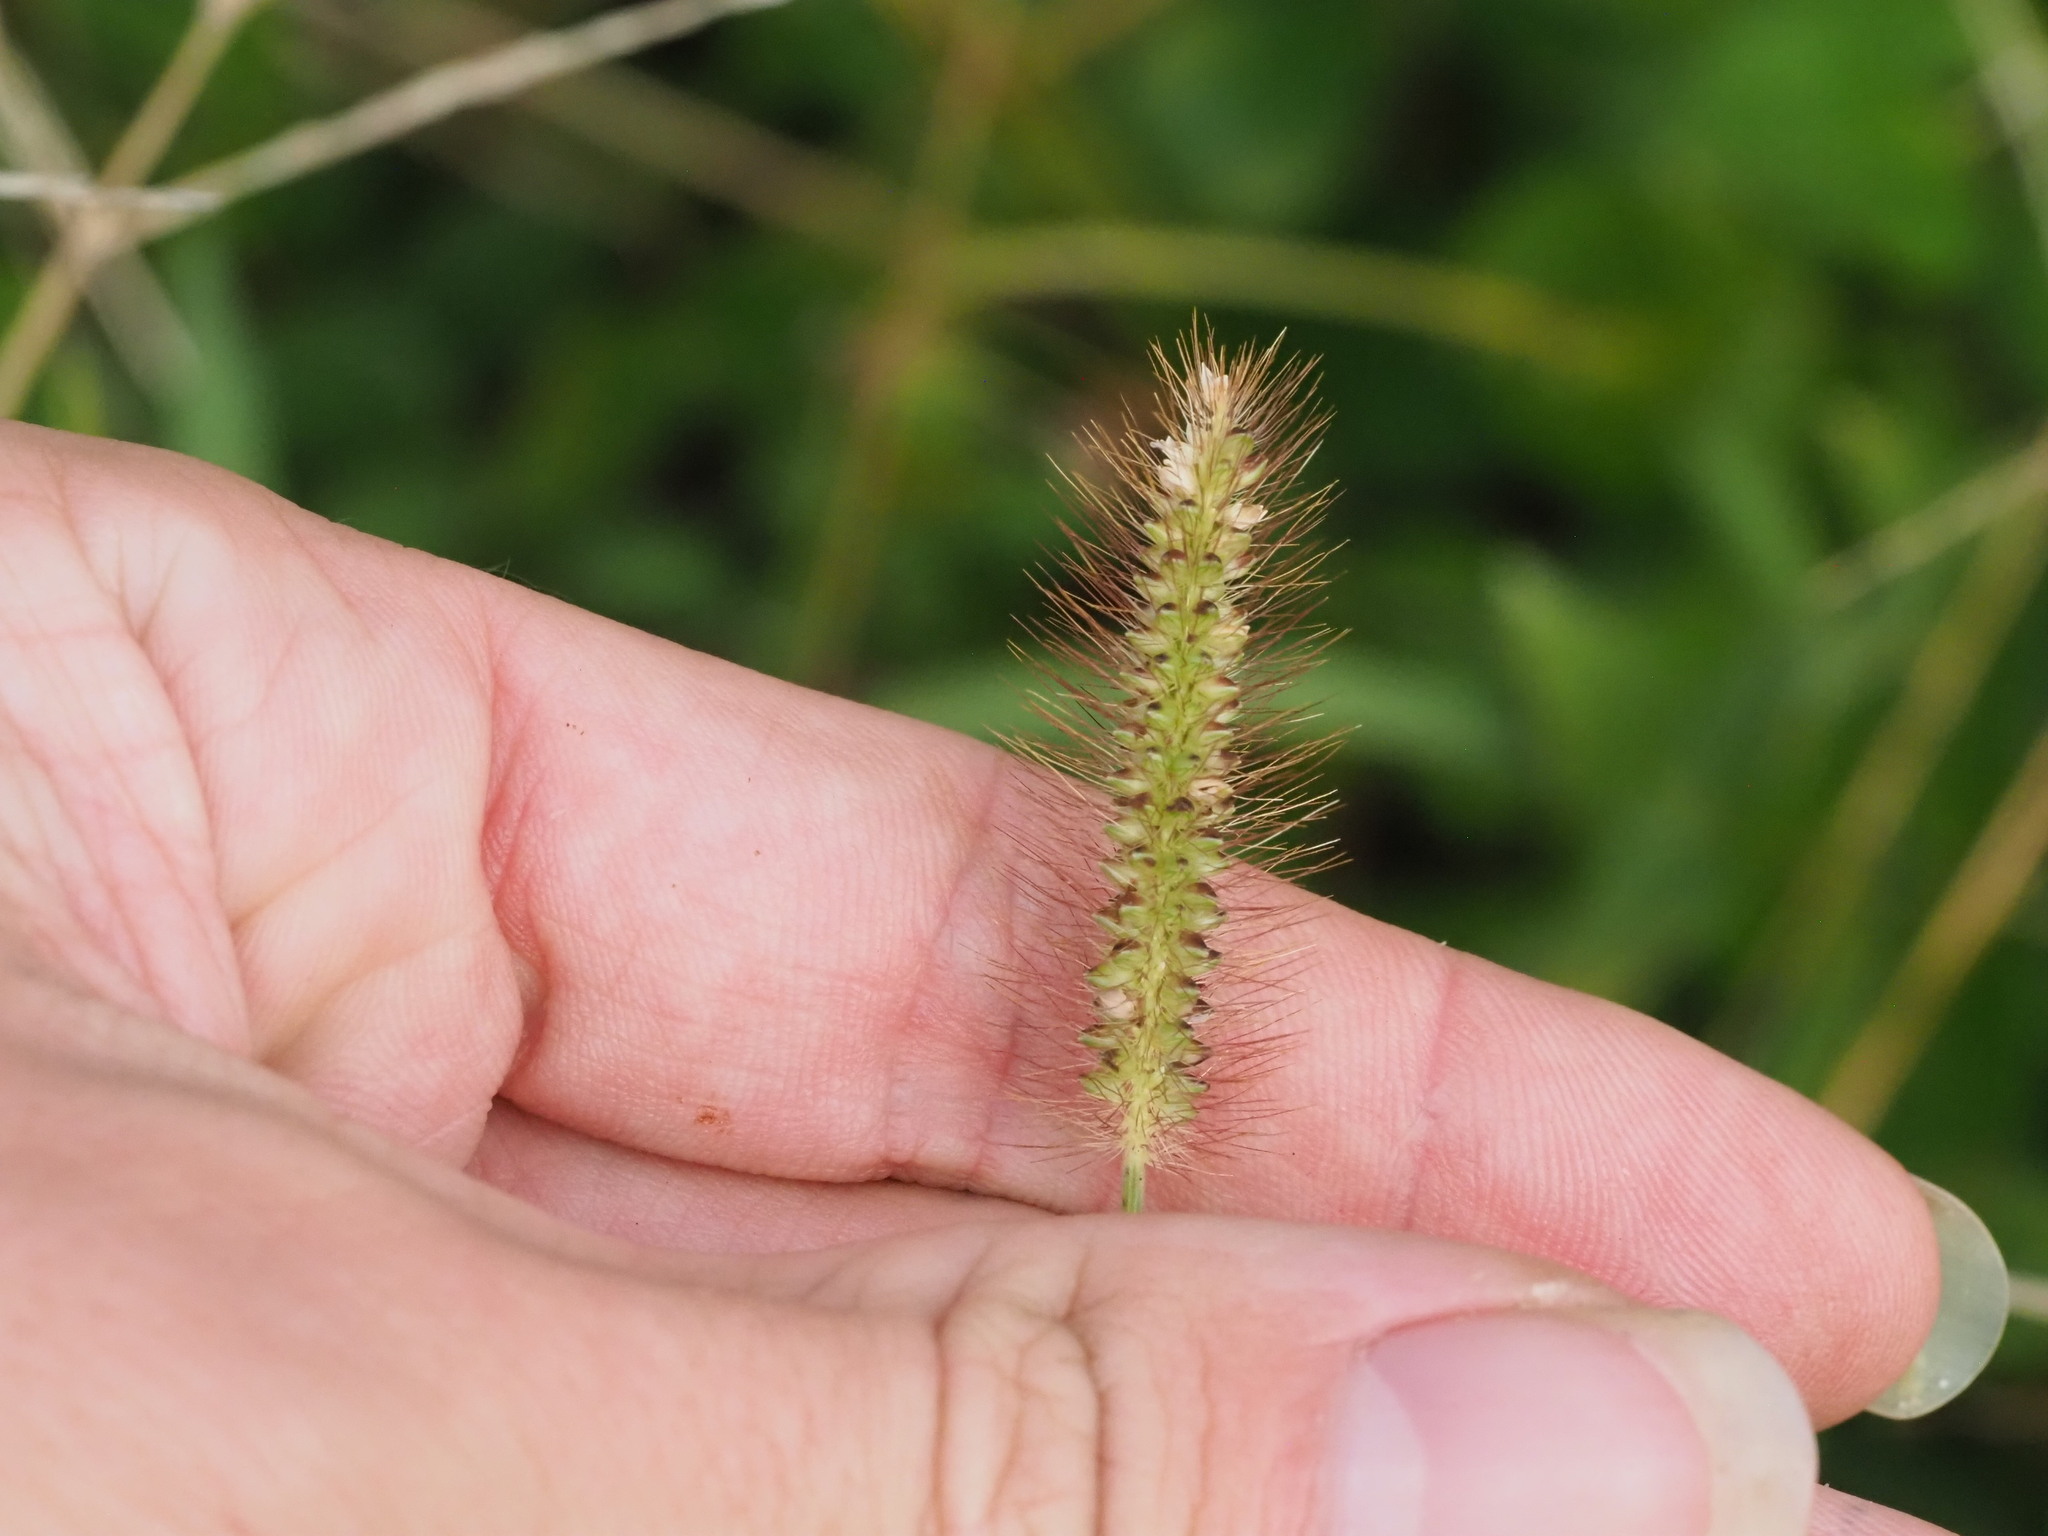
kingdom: Plantae
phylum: Tracheophyta
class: Liliopsida
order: Poales
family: Poaceae
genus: Setaria
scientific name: Setaria parviflora
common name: Knotroot bristle-grass
